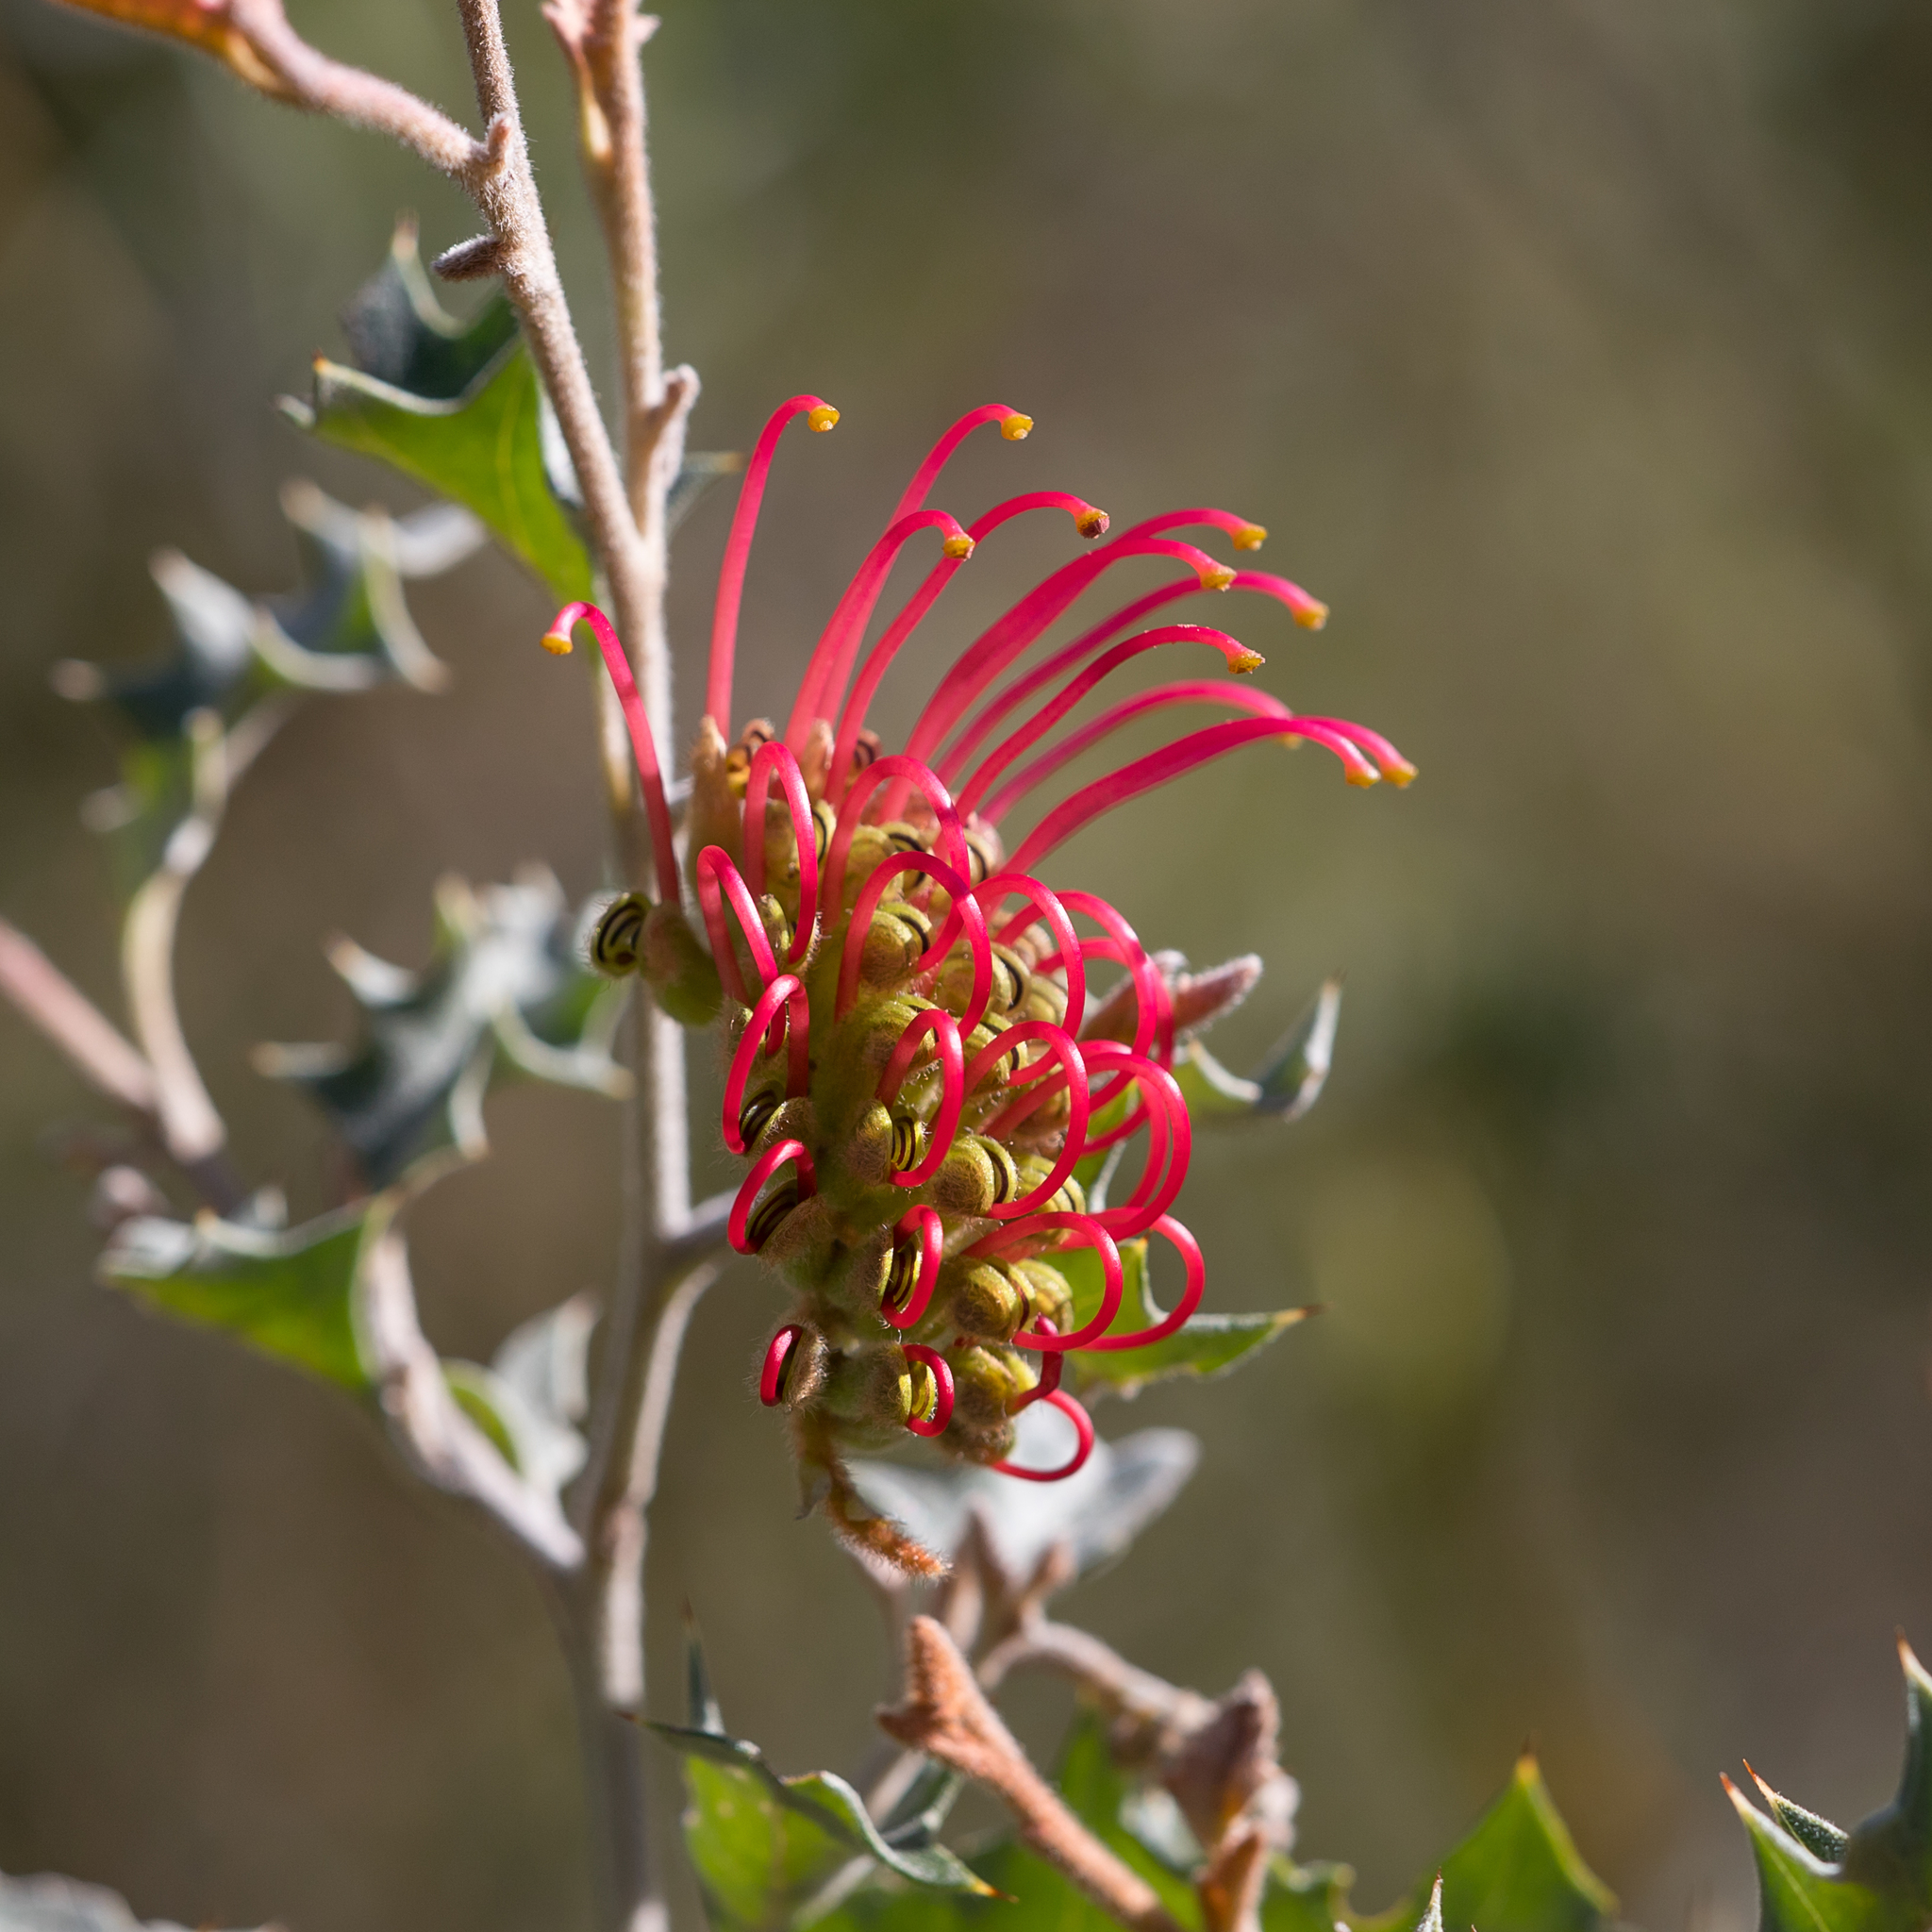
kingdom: Plantae
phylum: Tracheophyta
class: Magnoliopsida
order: Proteales
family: Proteaceae
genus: Grevillea
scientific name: Grevillea aquifolium
